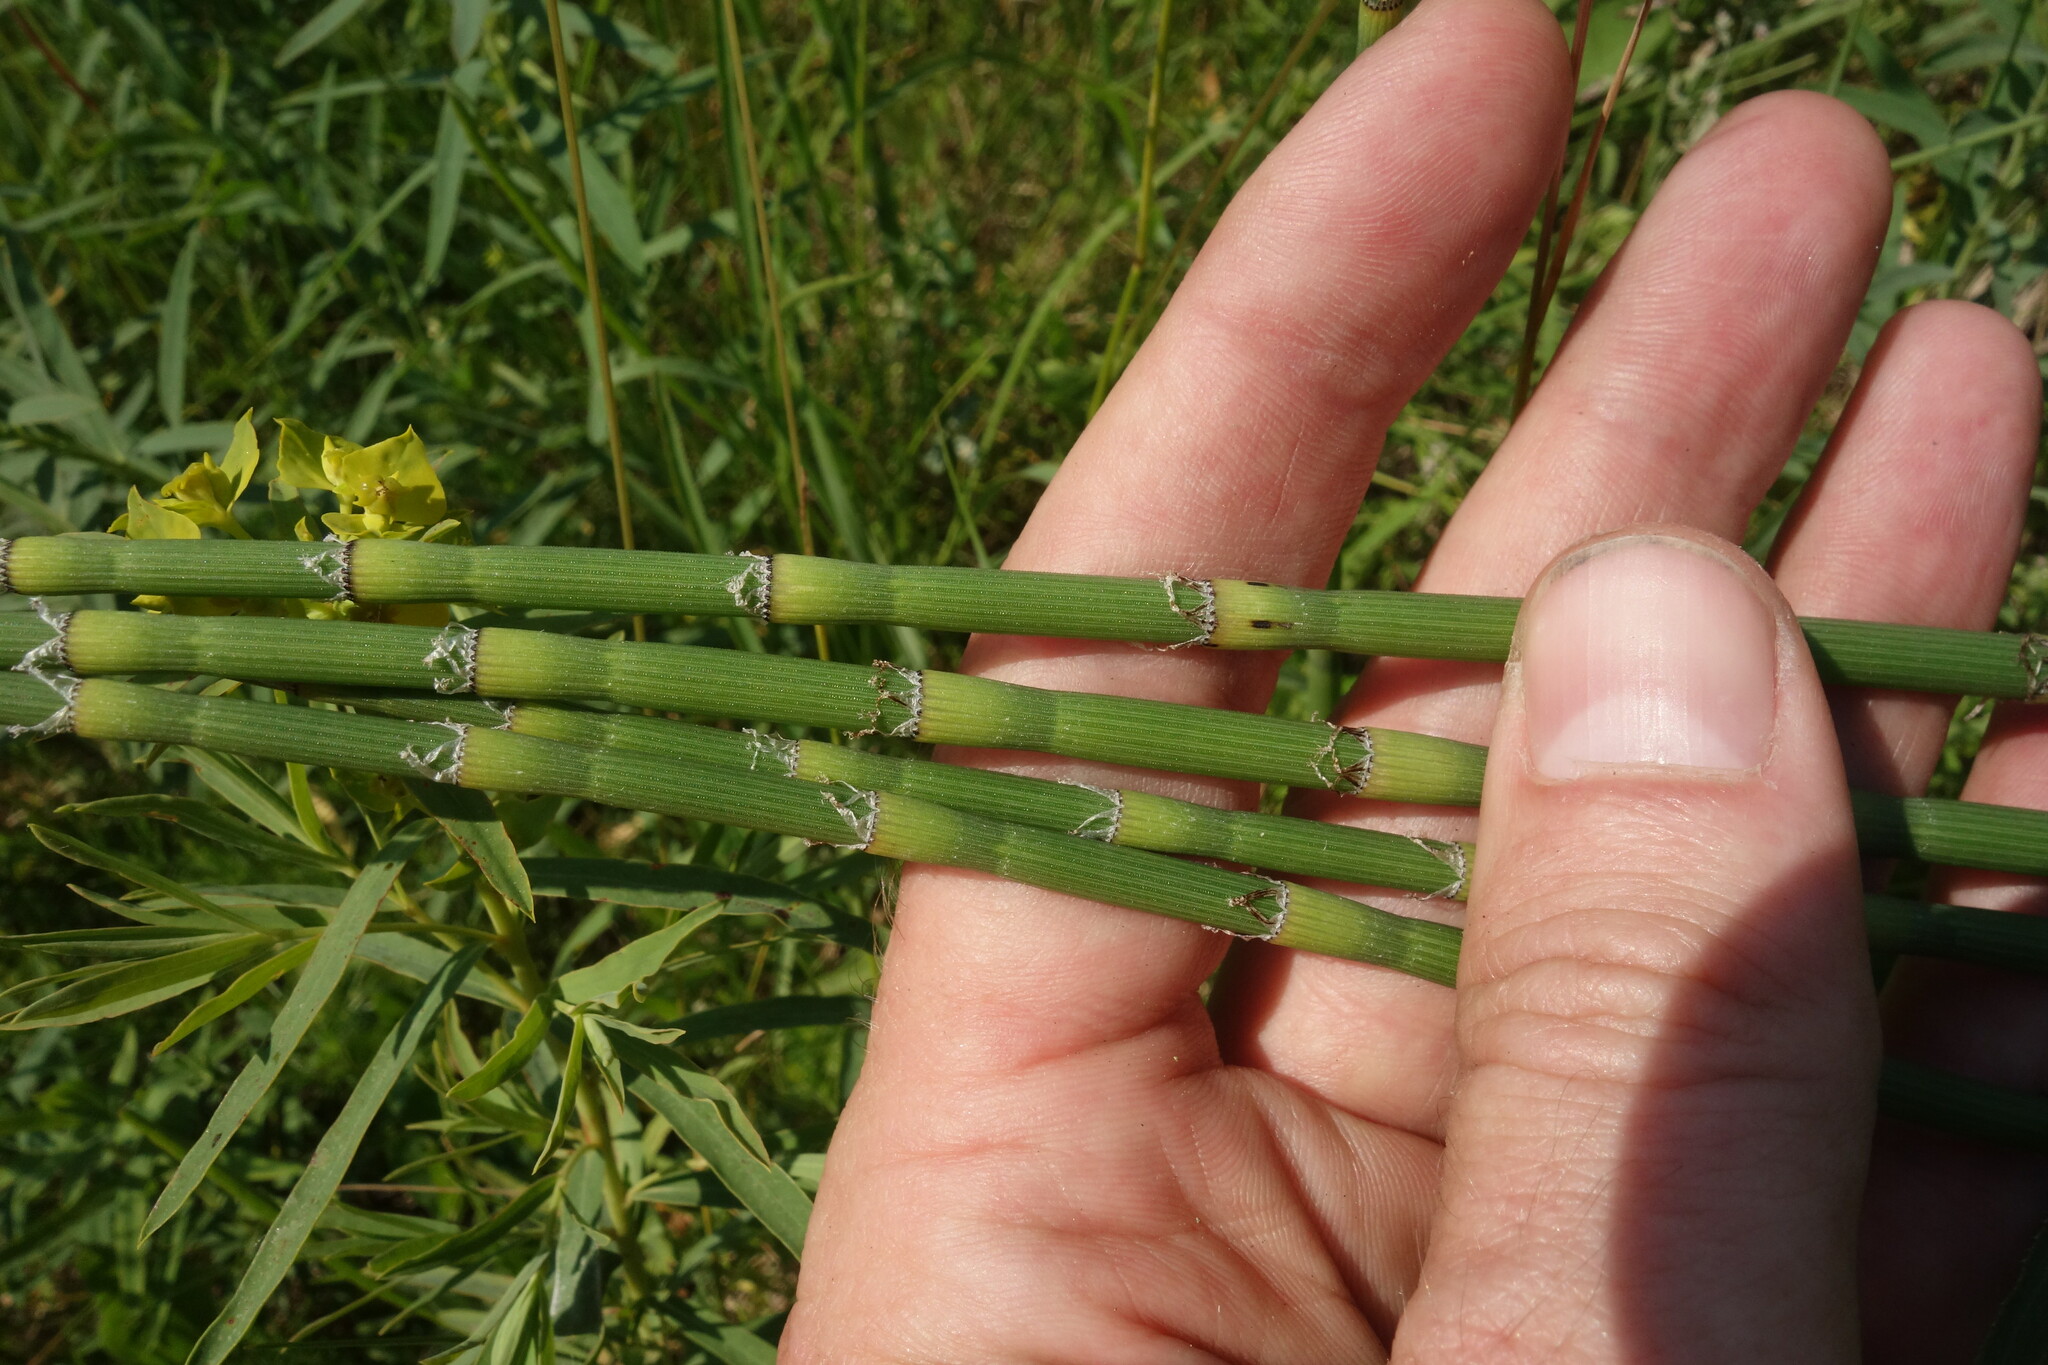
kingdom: Plantae
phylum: Tracheophyta
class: Polypodiopsida
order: Equisetales
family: Equisetaceae
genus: Equisetum
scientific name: Equisetum ramosissimum
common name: Branched horsetail
